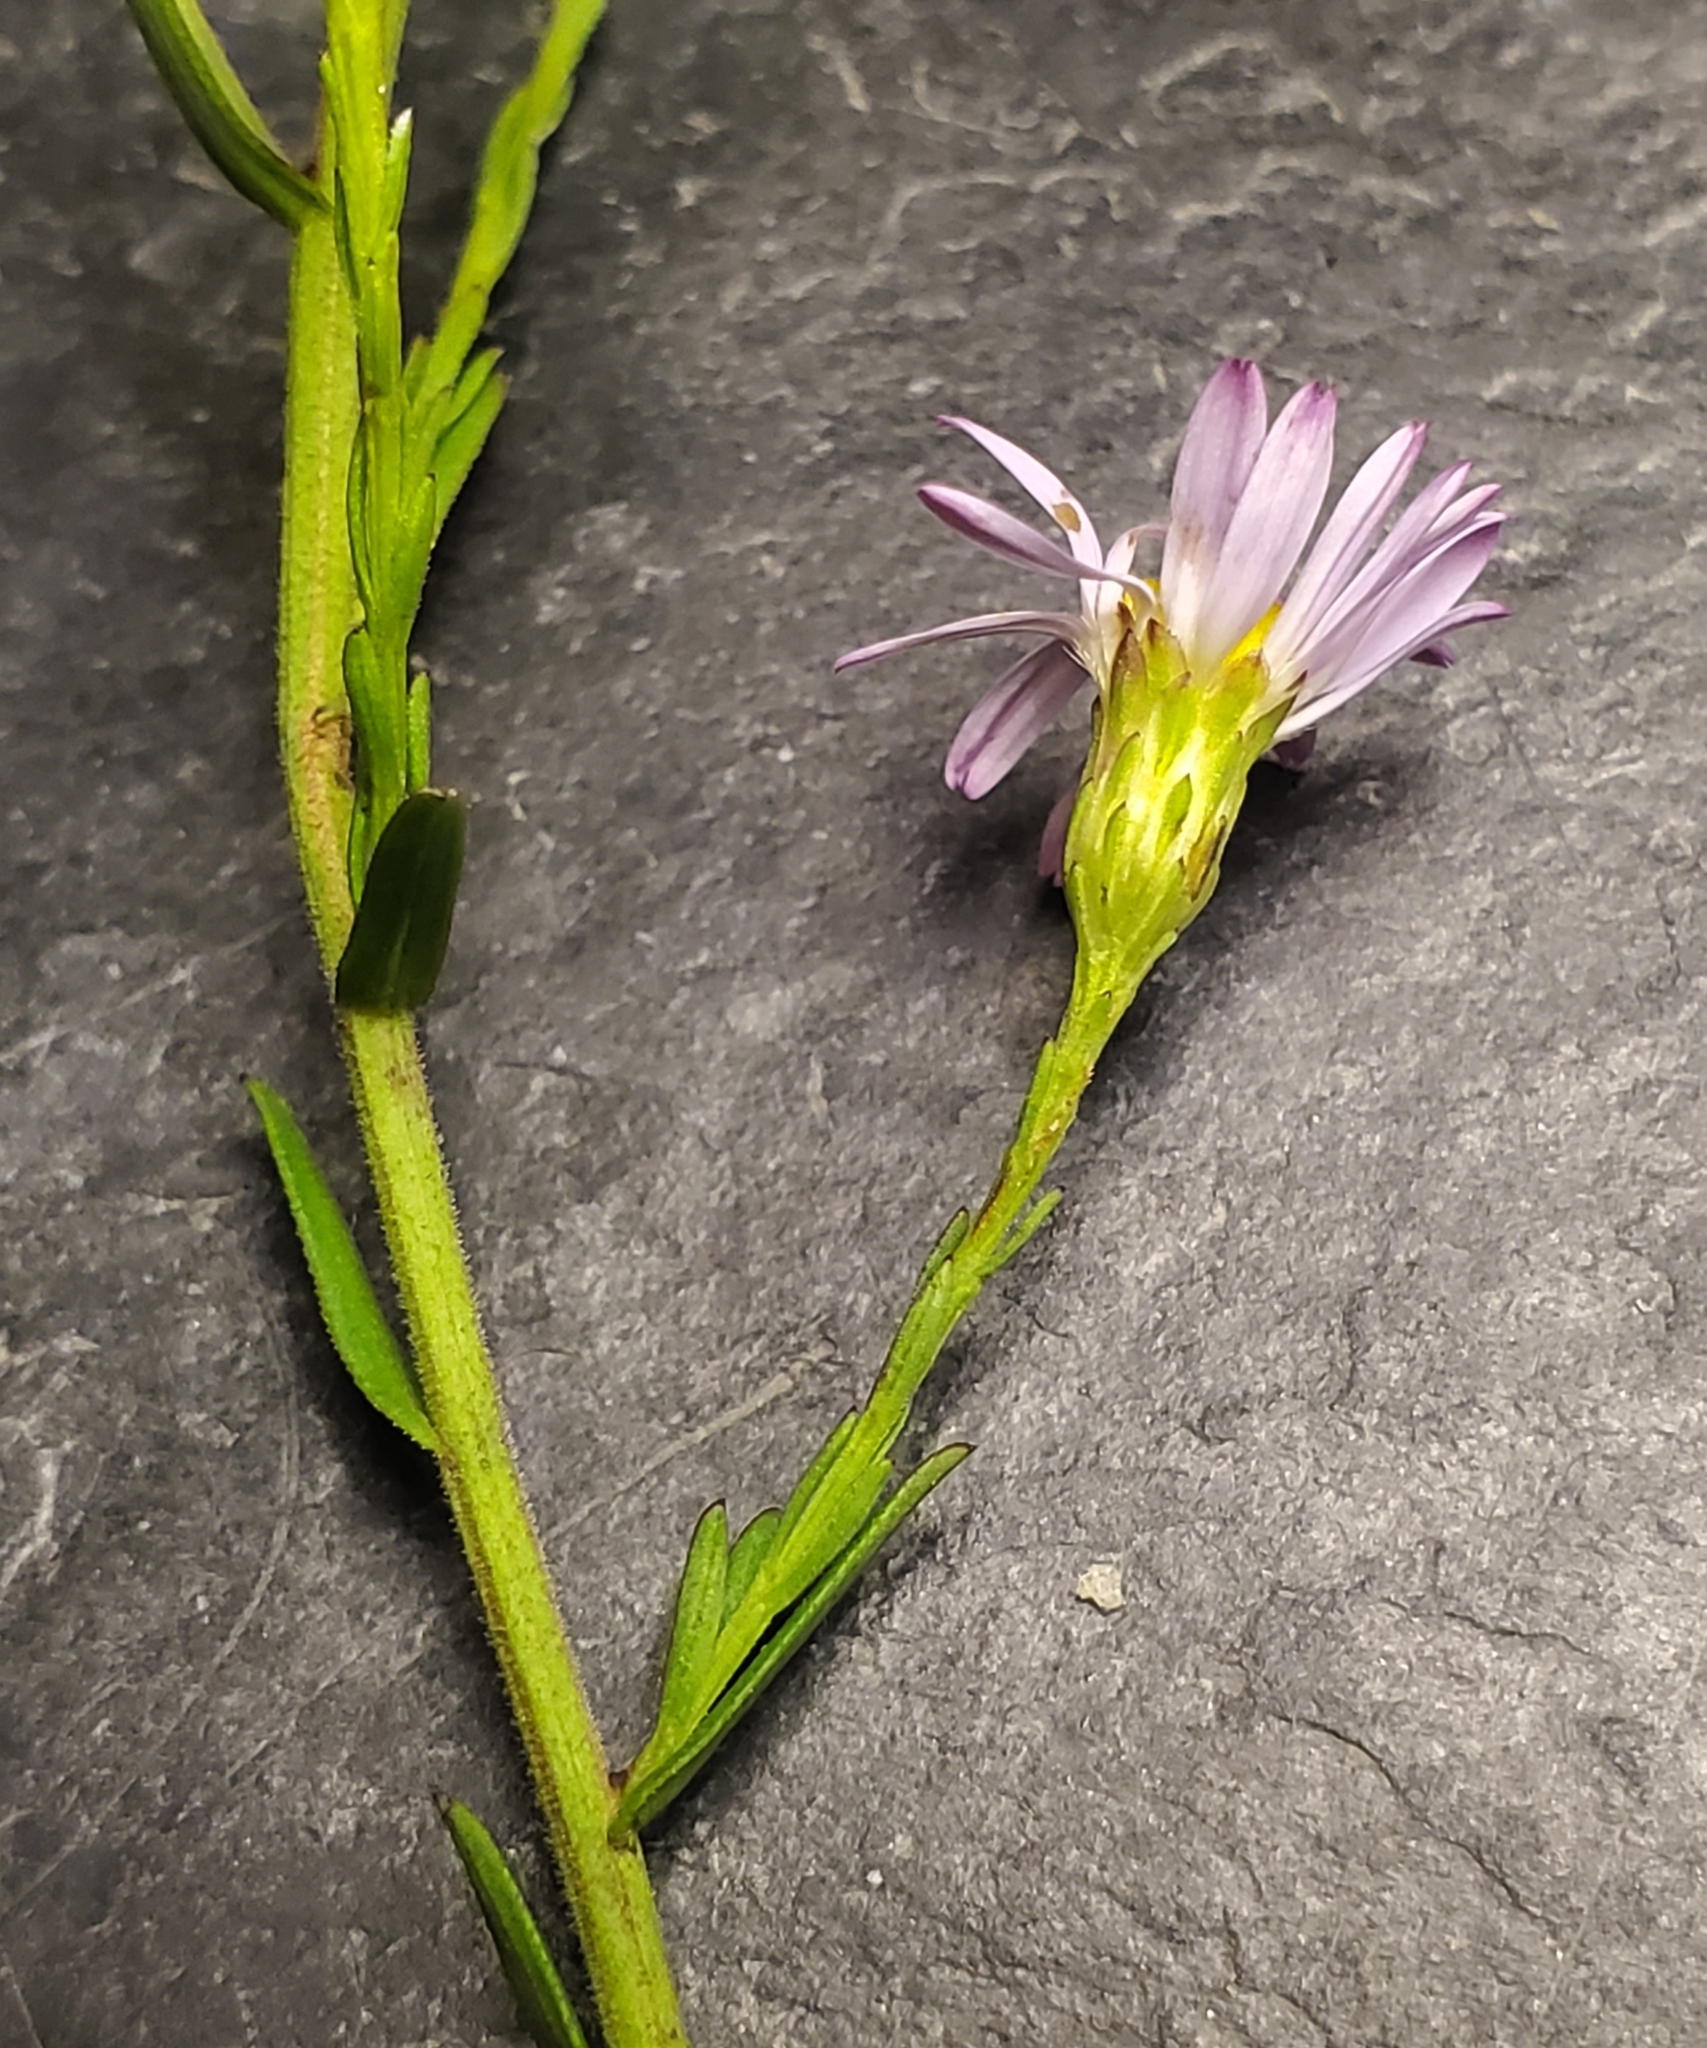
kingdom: Plantae
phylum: Tracheophyta
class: Magnoliopsida
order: Asterales
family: Asteraceae
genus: Symphyotrichum
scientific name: Symphyotrichum dumosum
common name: Bushy aster
